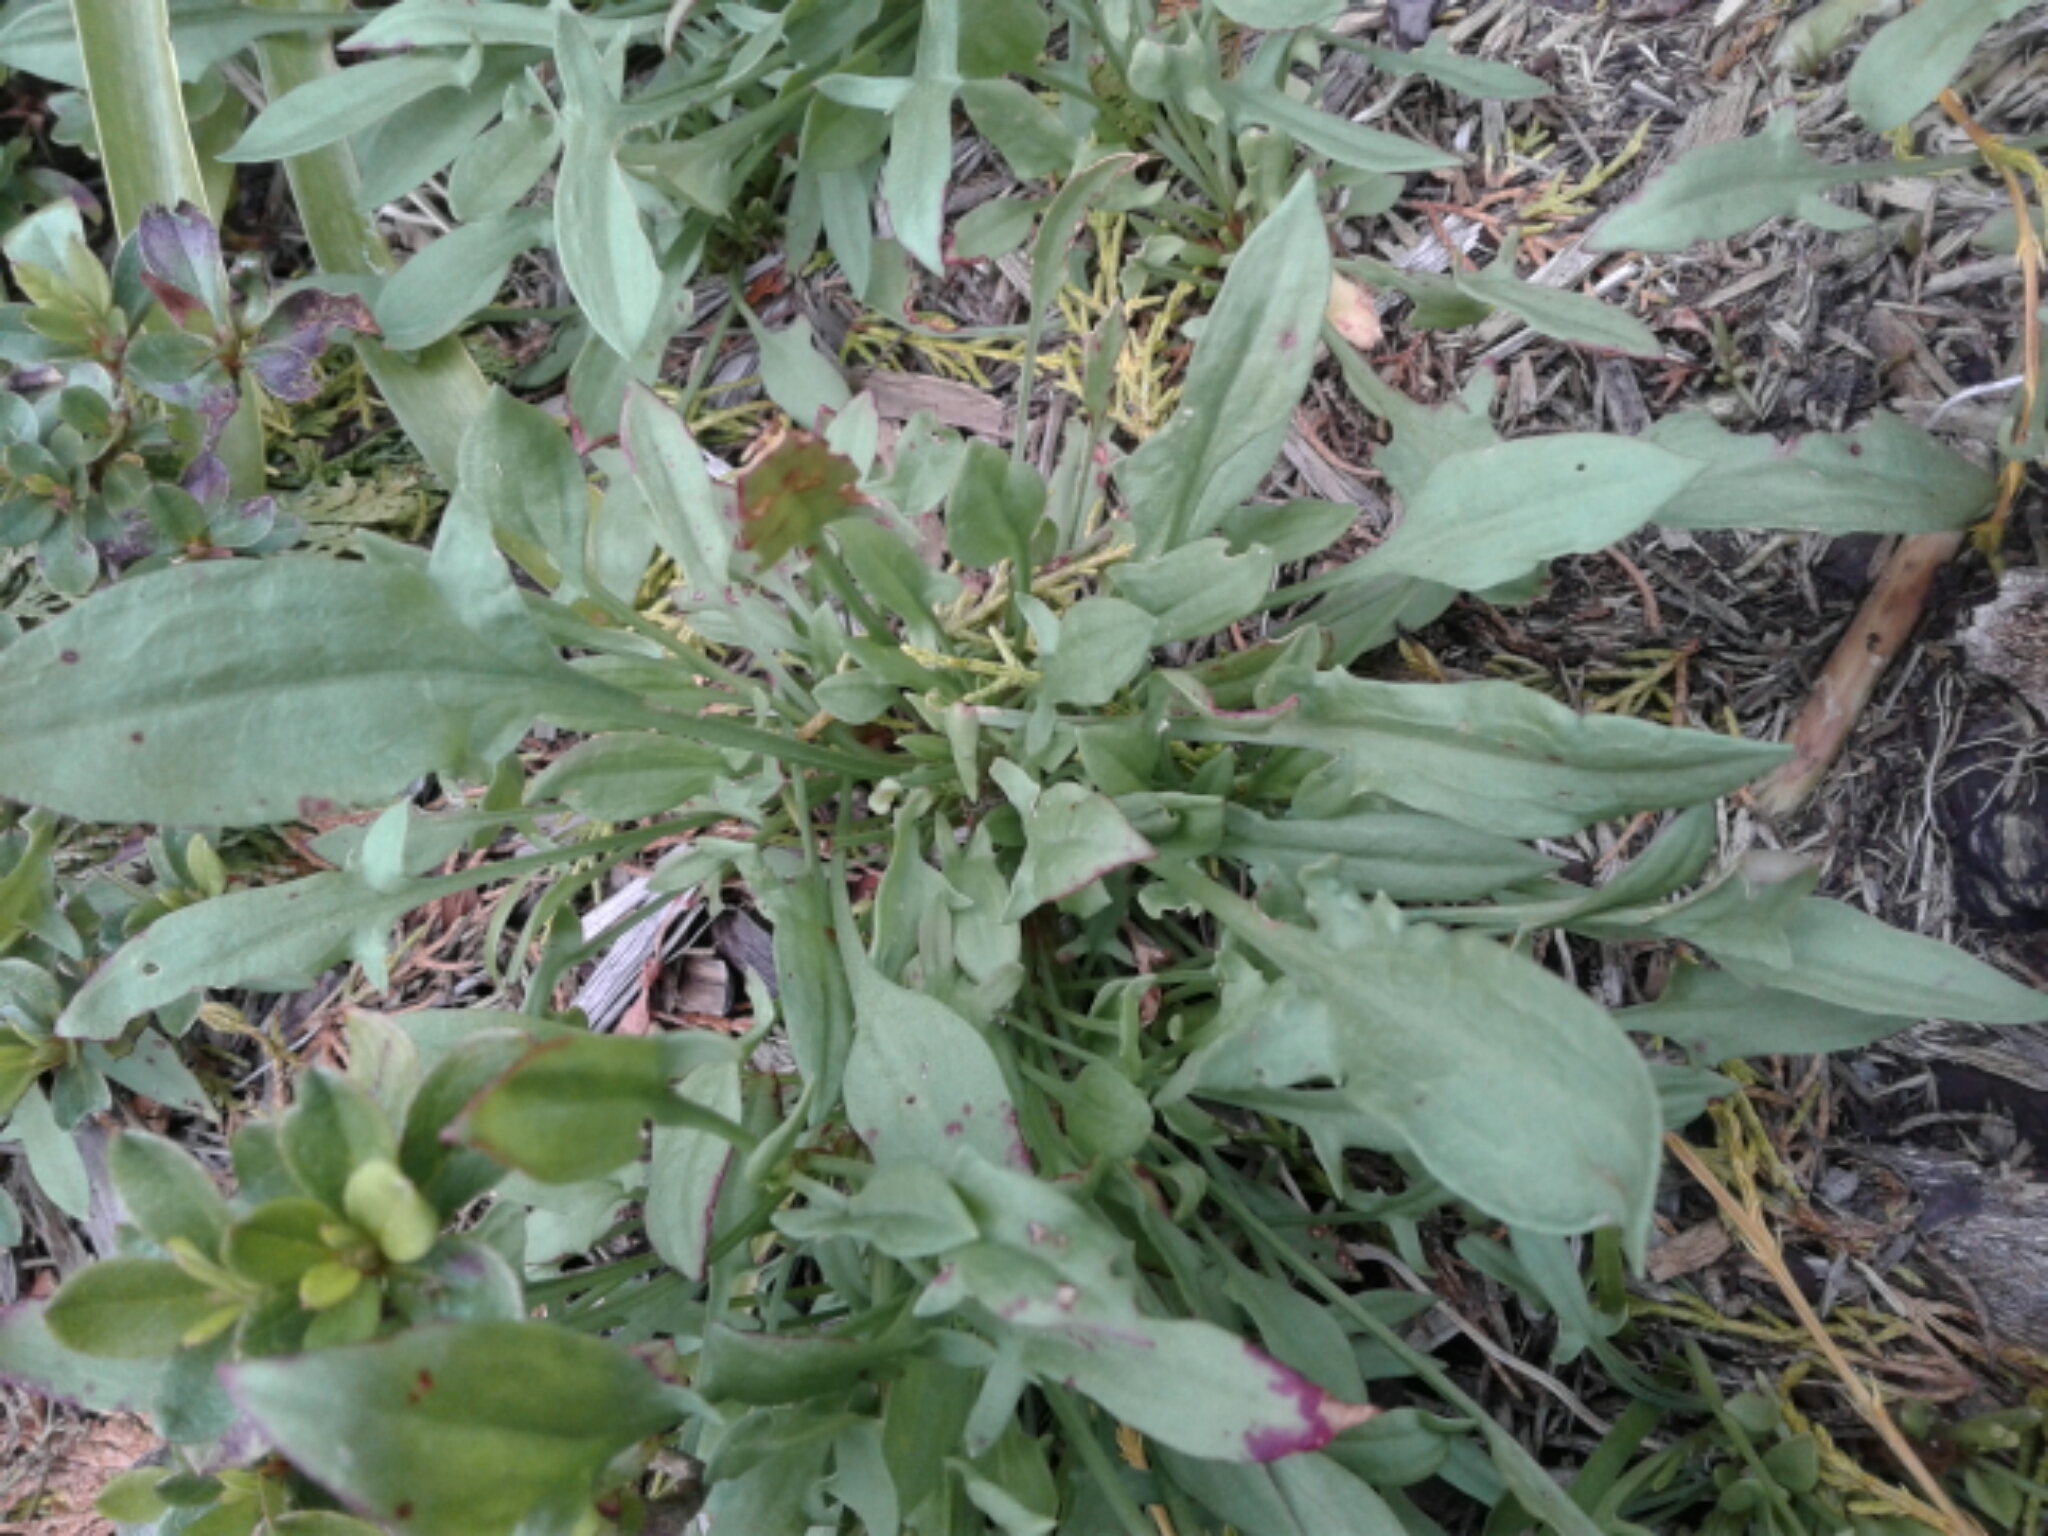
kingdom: Plantae
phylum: Tracheophyta
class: Magnoliopsida
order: Caryophyllales
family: Polygonaceae
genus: Rumex
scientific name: Rumex acetosella
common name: Common sheep sorrel
